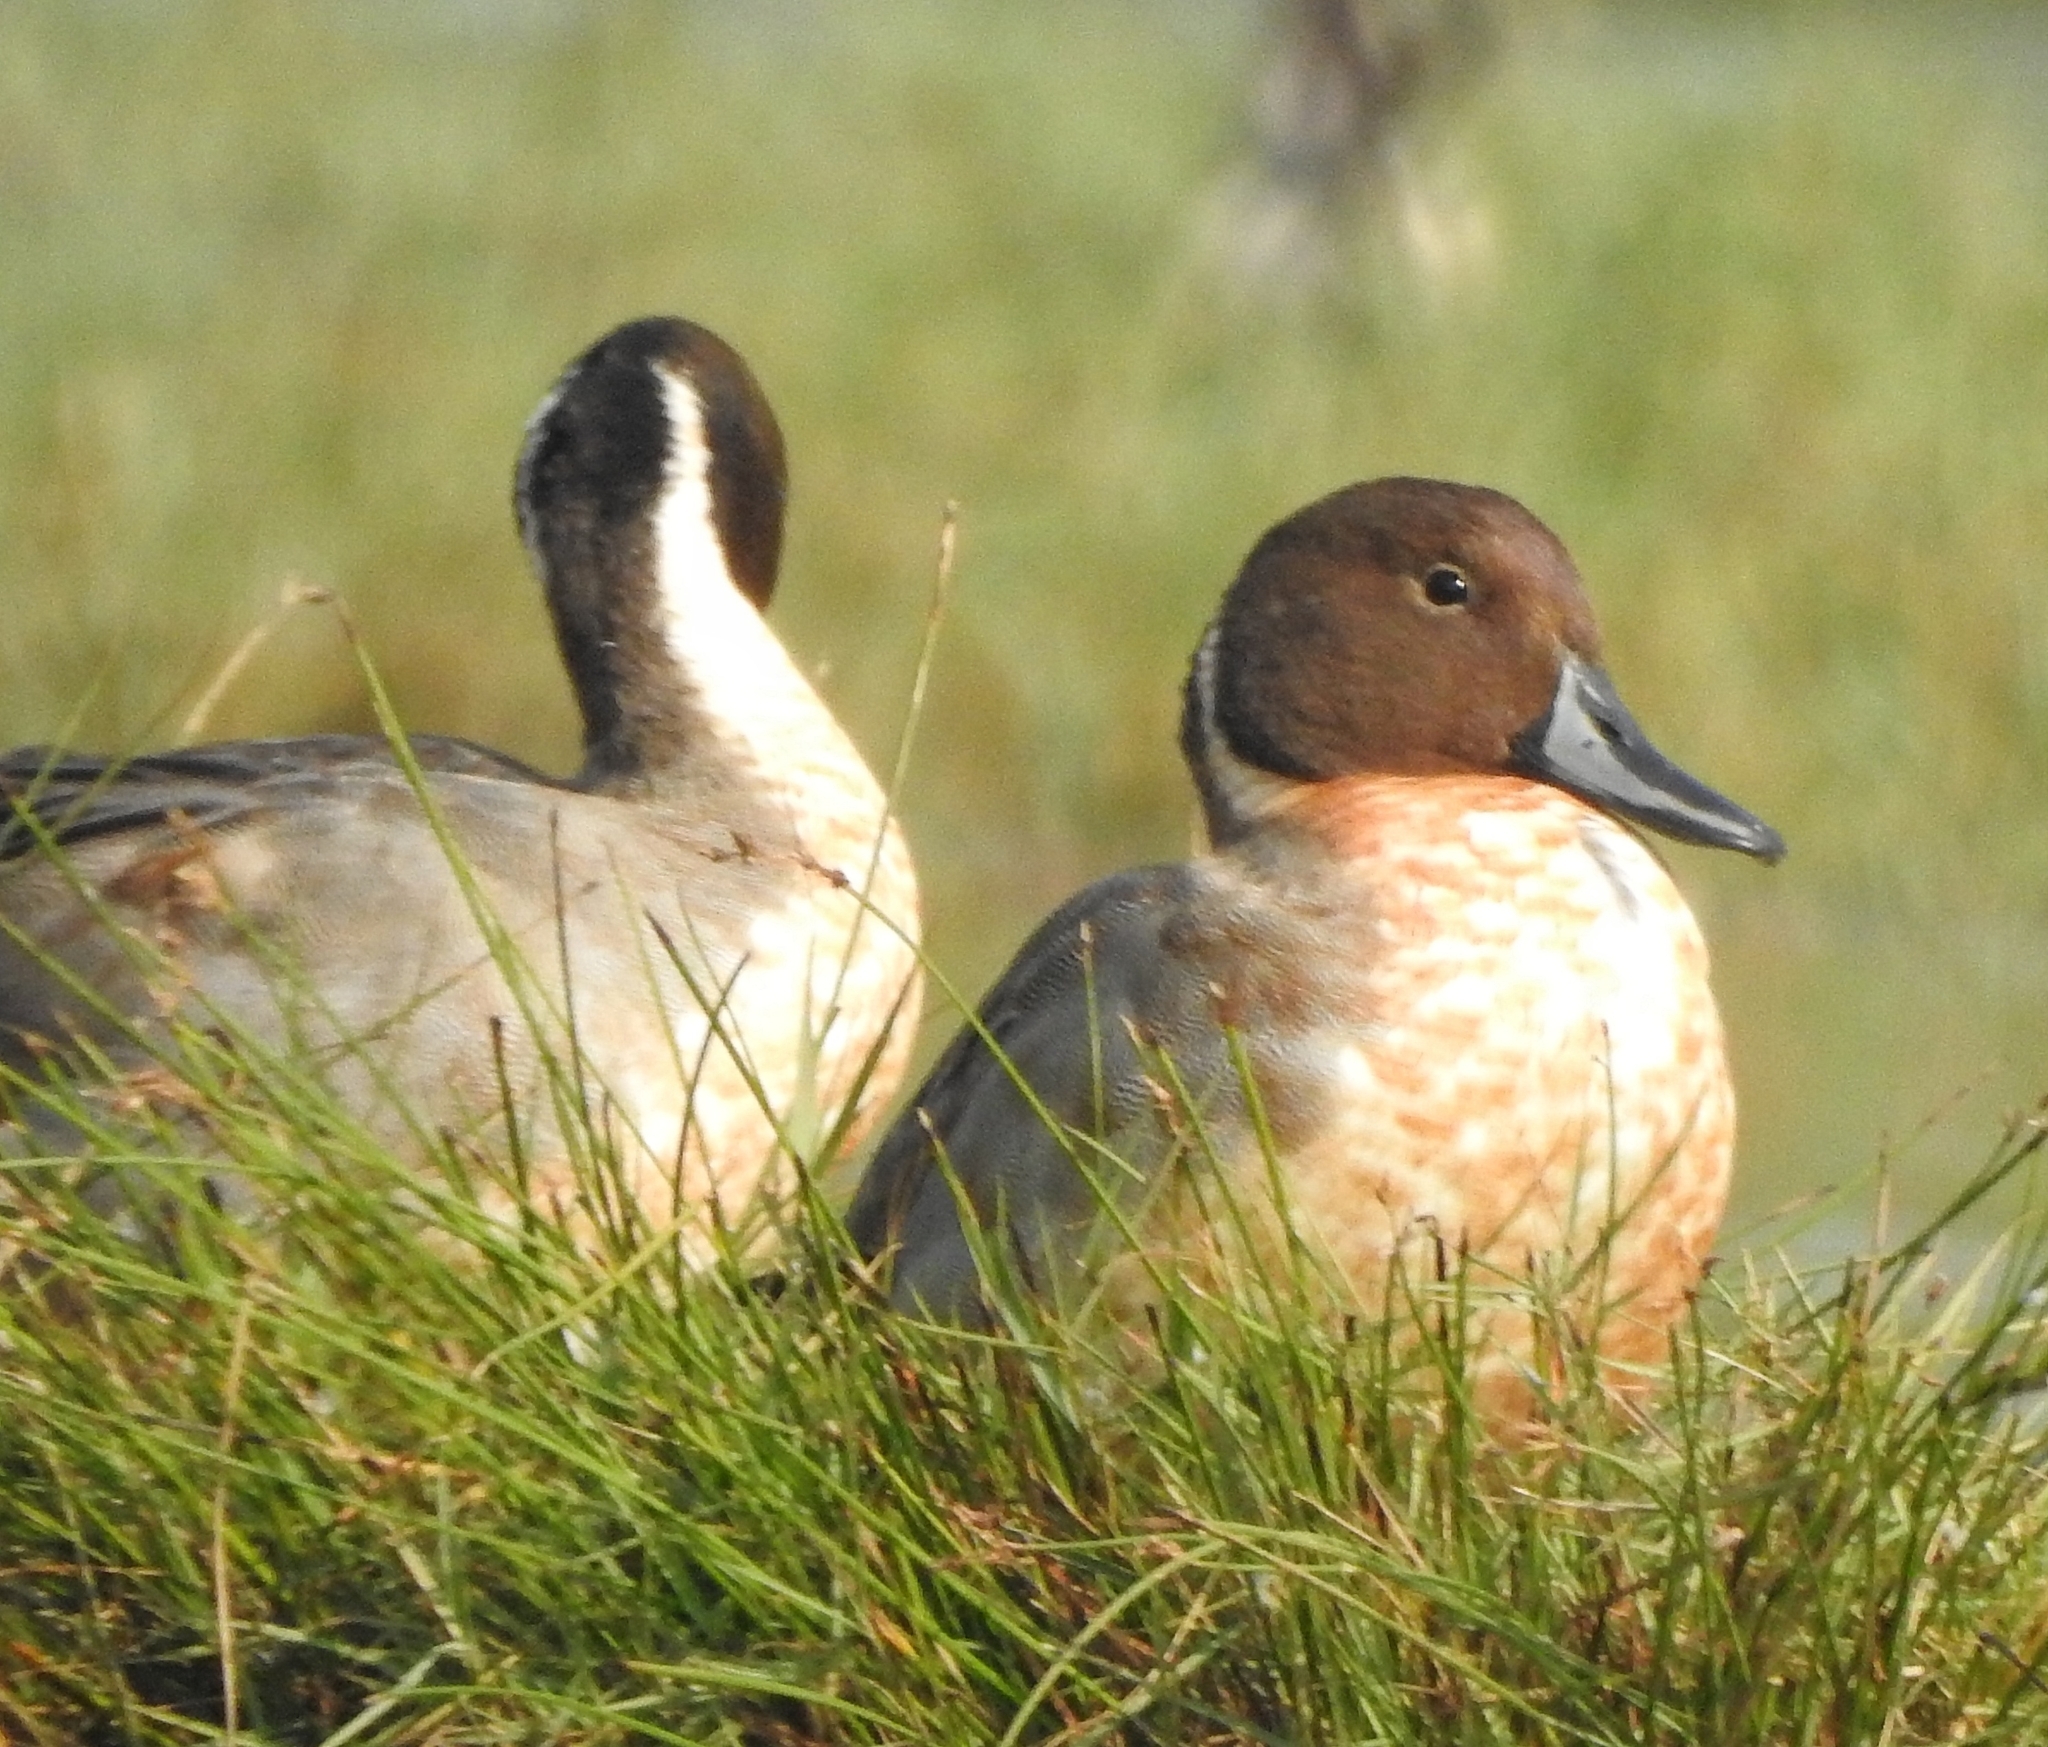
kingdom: Animalia
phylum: Chordata
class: Aves
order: Anseriformes
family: Anatidae
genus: Anas
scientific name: Anas acuta
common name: Northern pintail
